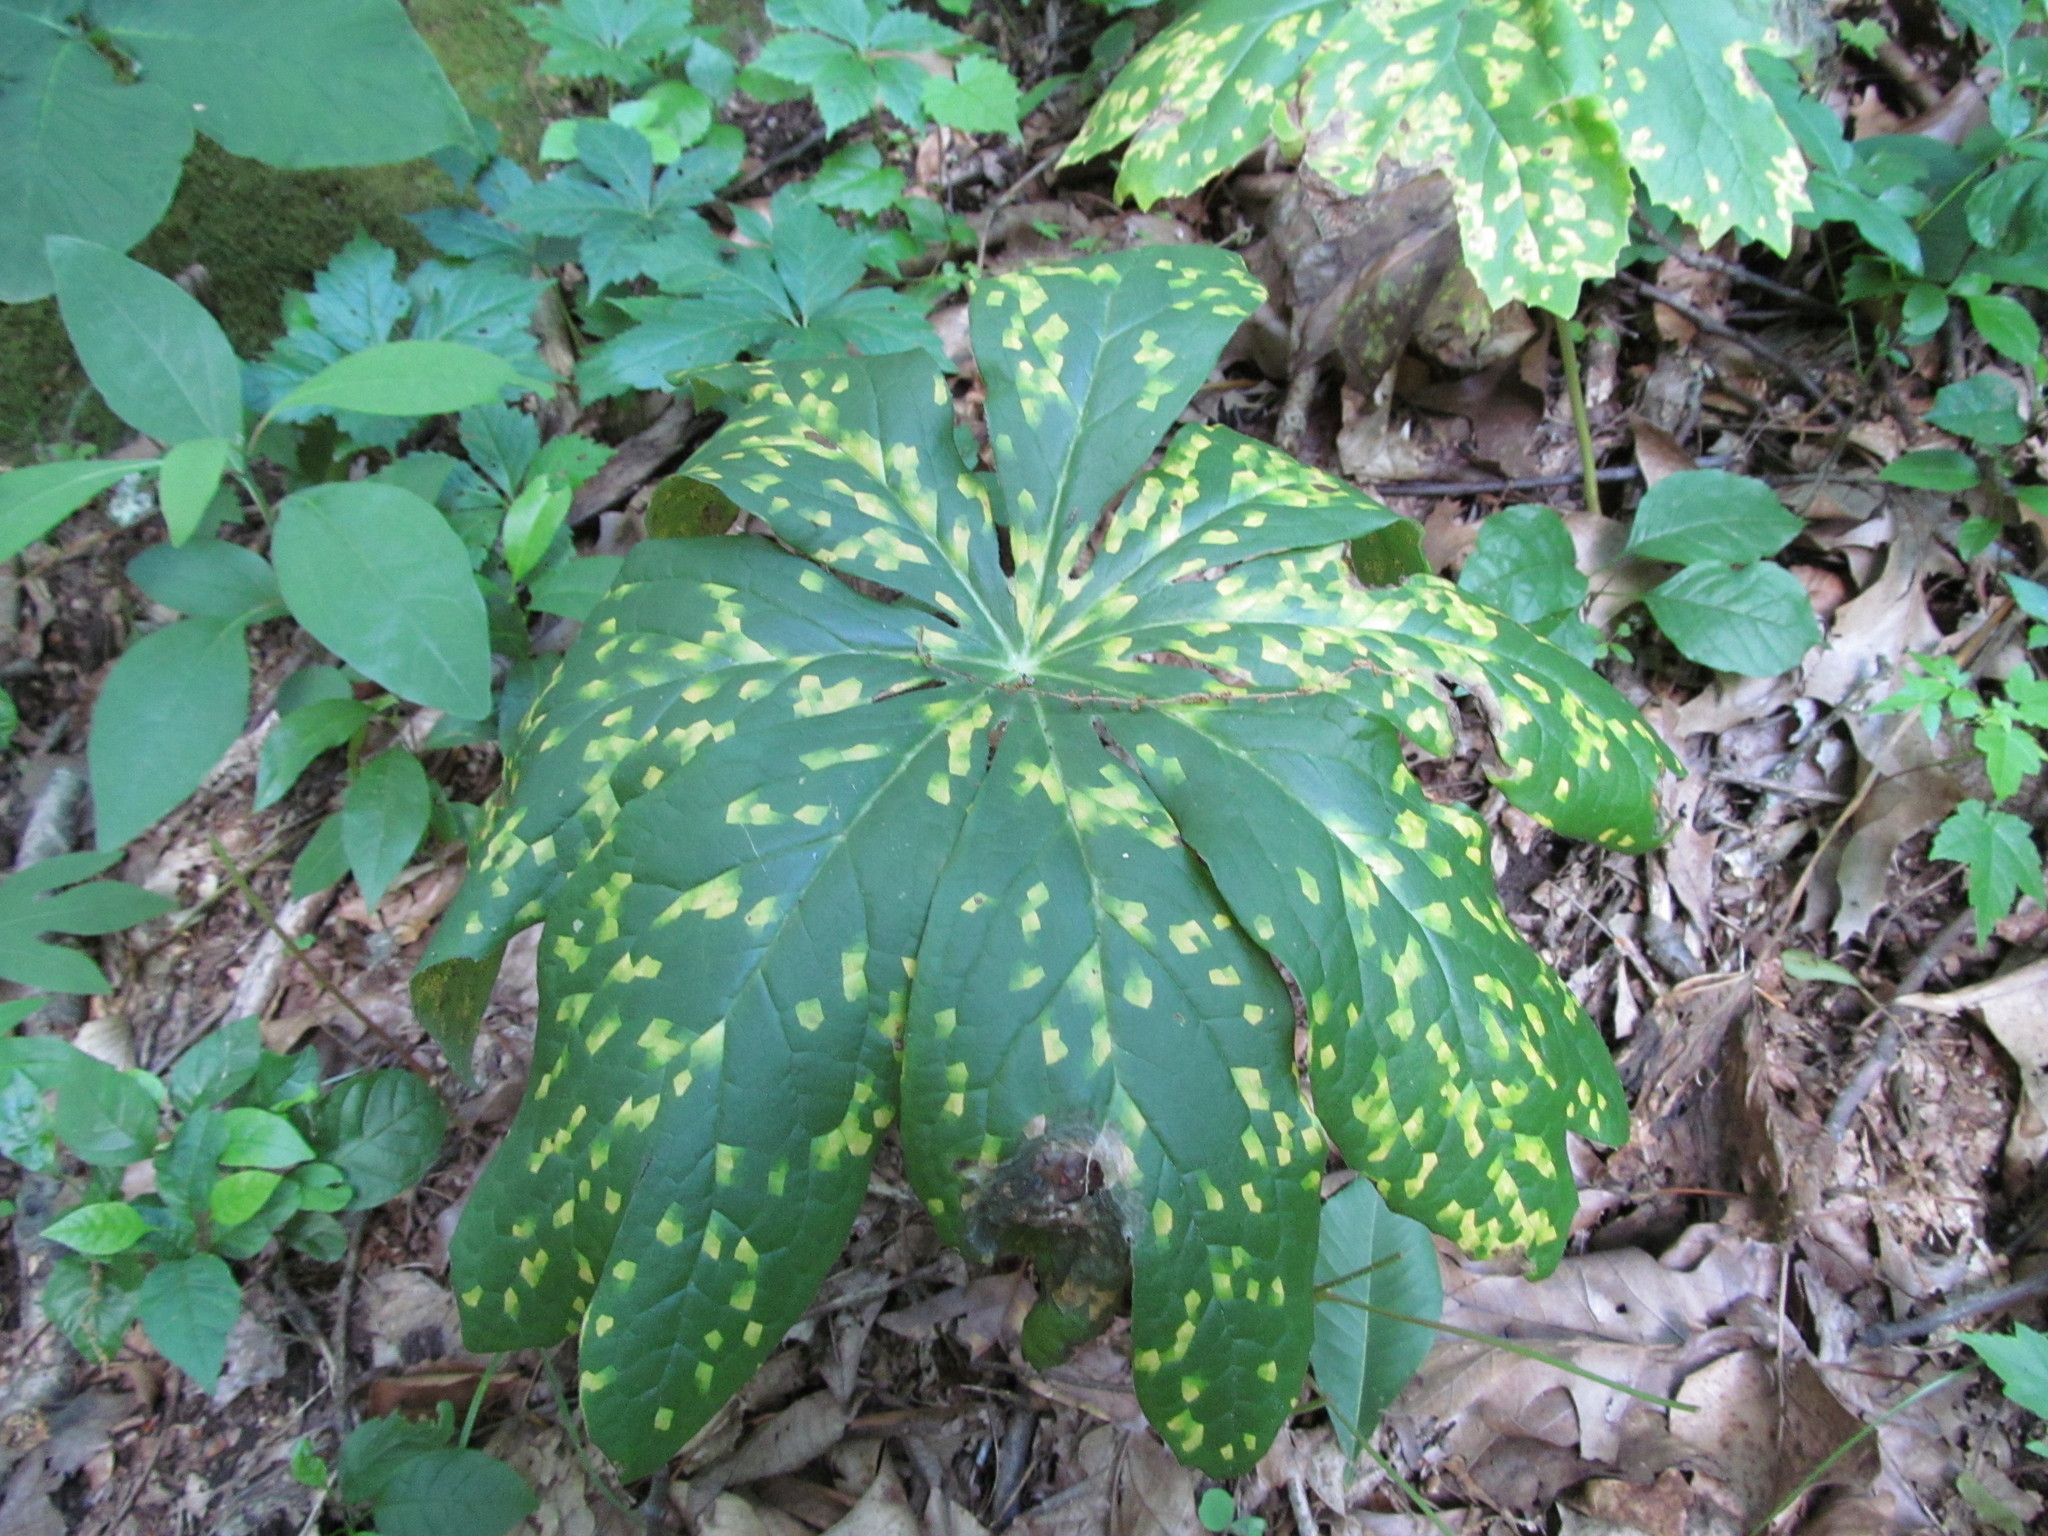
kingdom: Fungi
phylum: Basidiomycota
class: Pucciniomycetes
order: Pucciniales
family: Pucciniaceae
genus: Puccinia
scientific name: Puccinia podophylli
